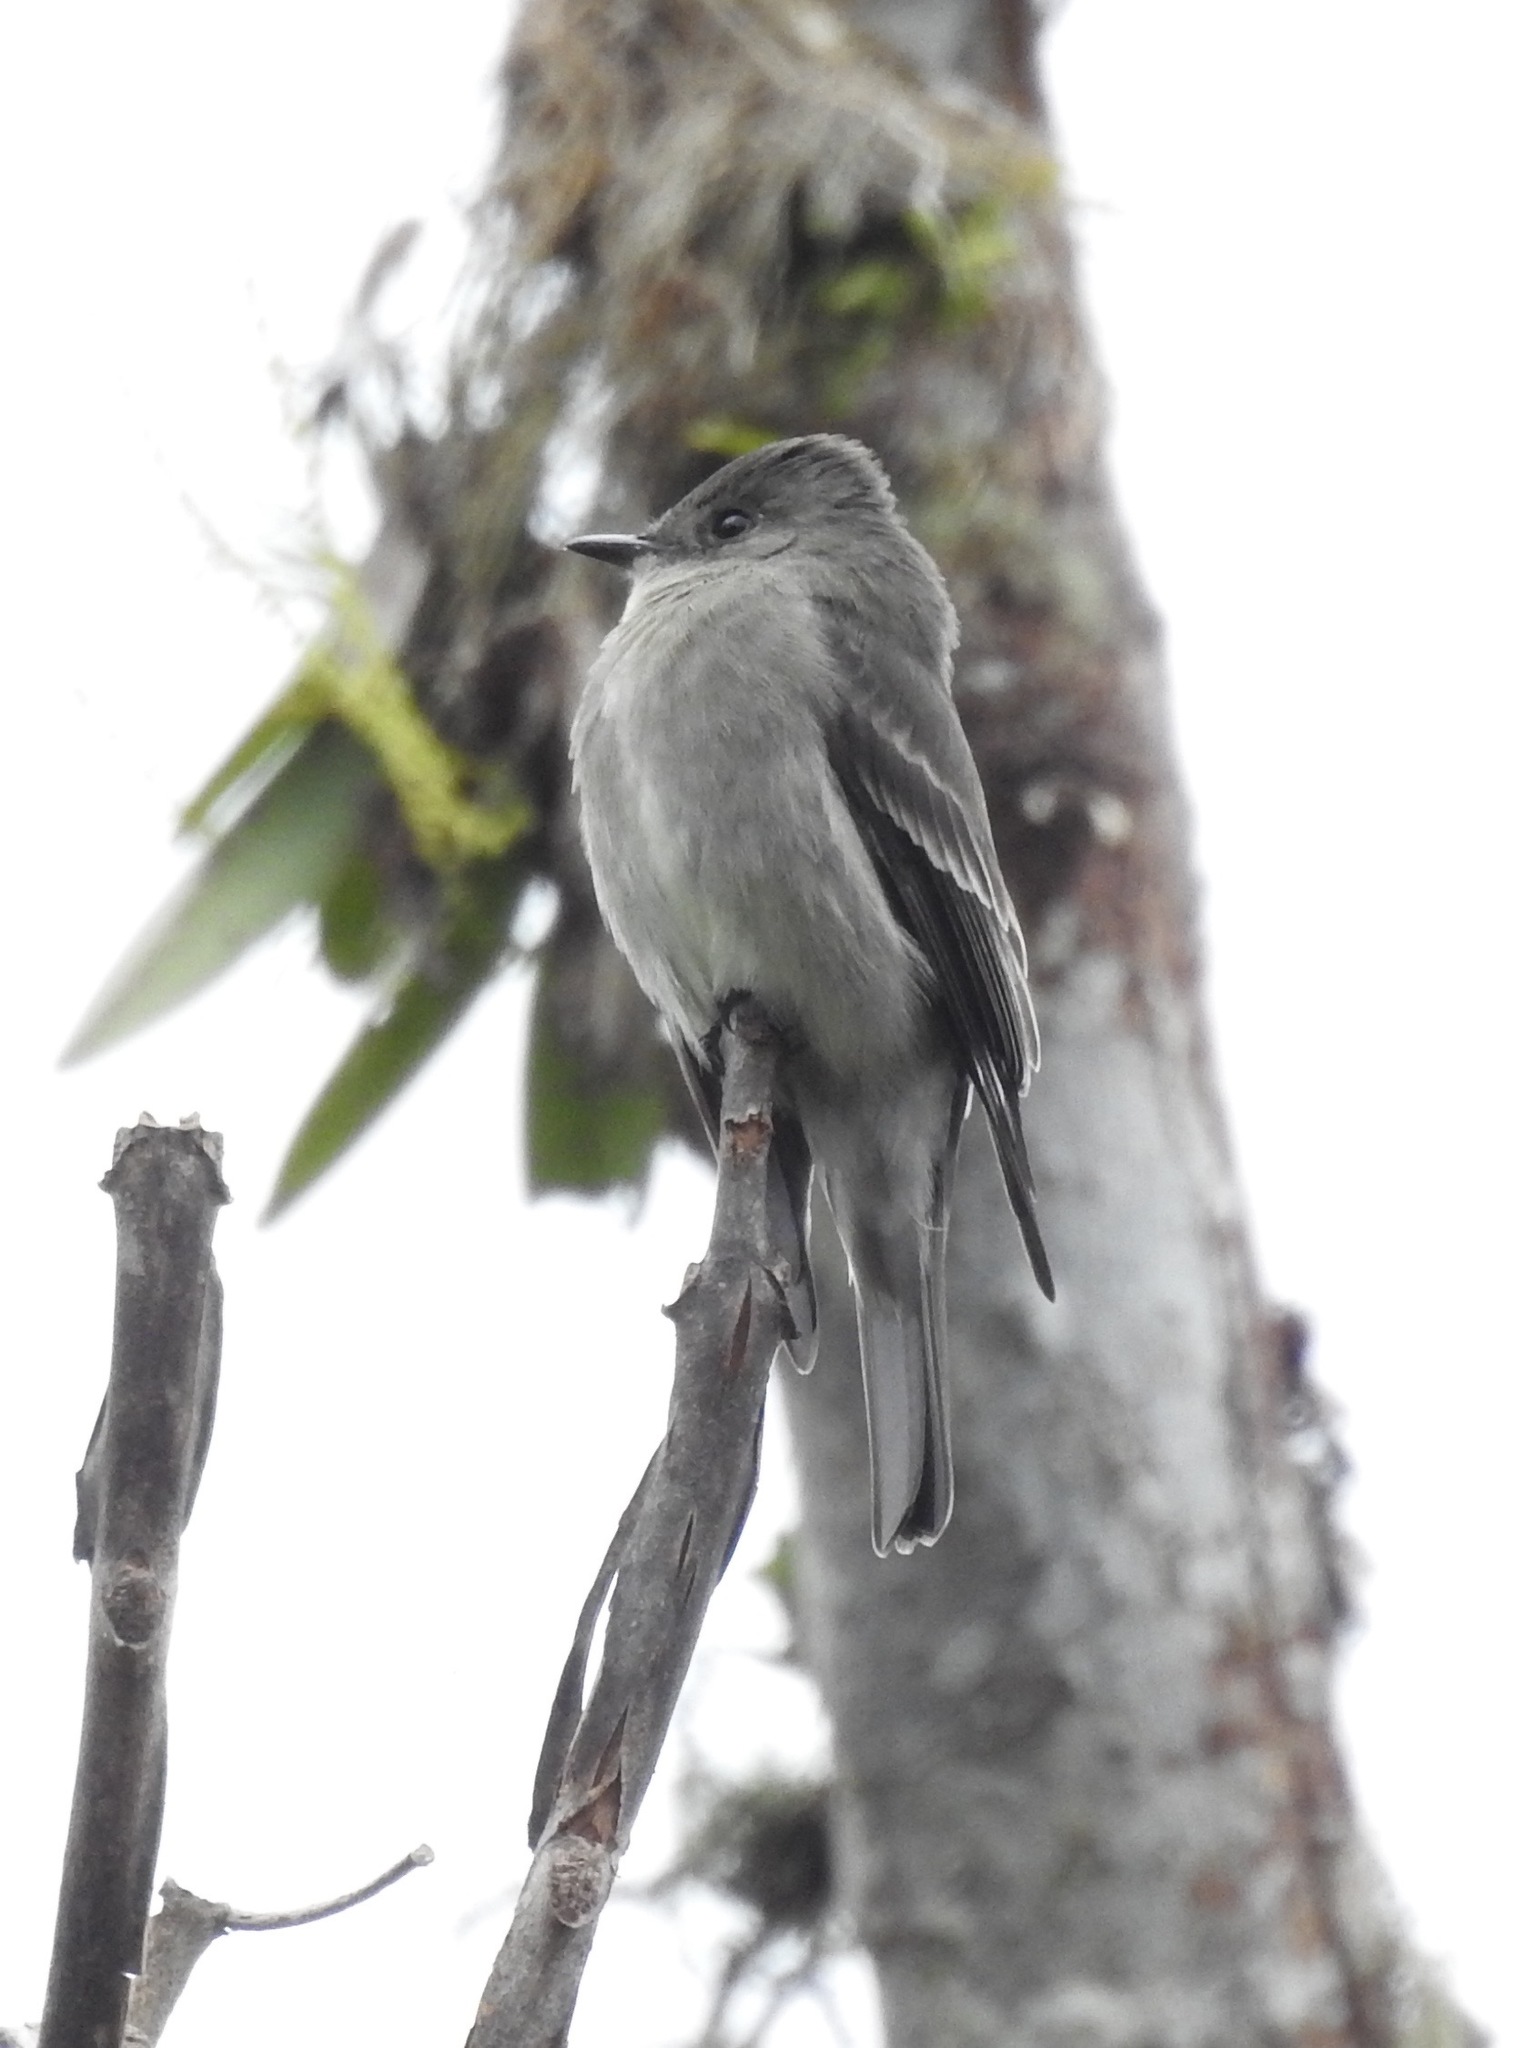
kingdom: Animalia
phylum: Chordata
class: Aves
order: Passeriformes
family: Tyrannidae
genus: Contopus
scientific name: Contopus sordidulus
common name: Western wood-pewee
